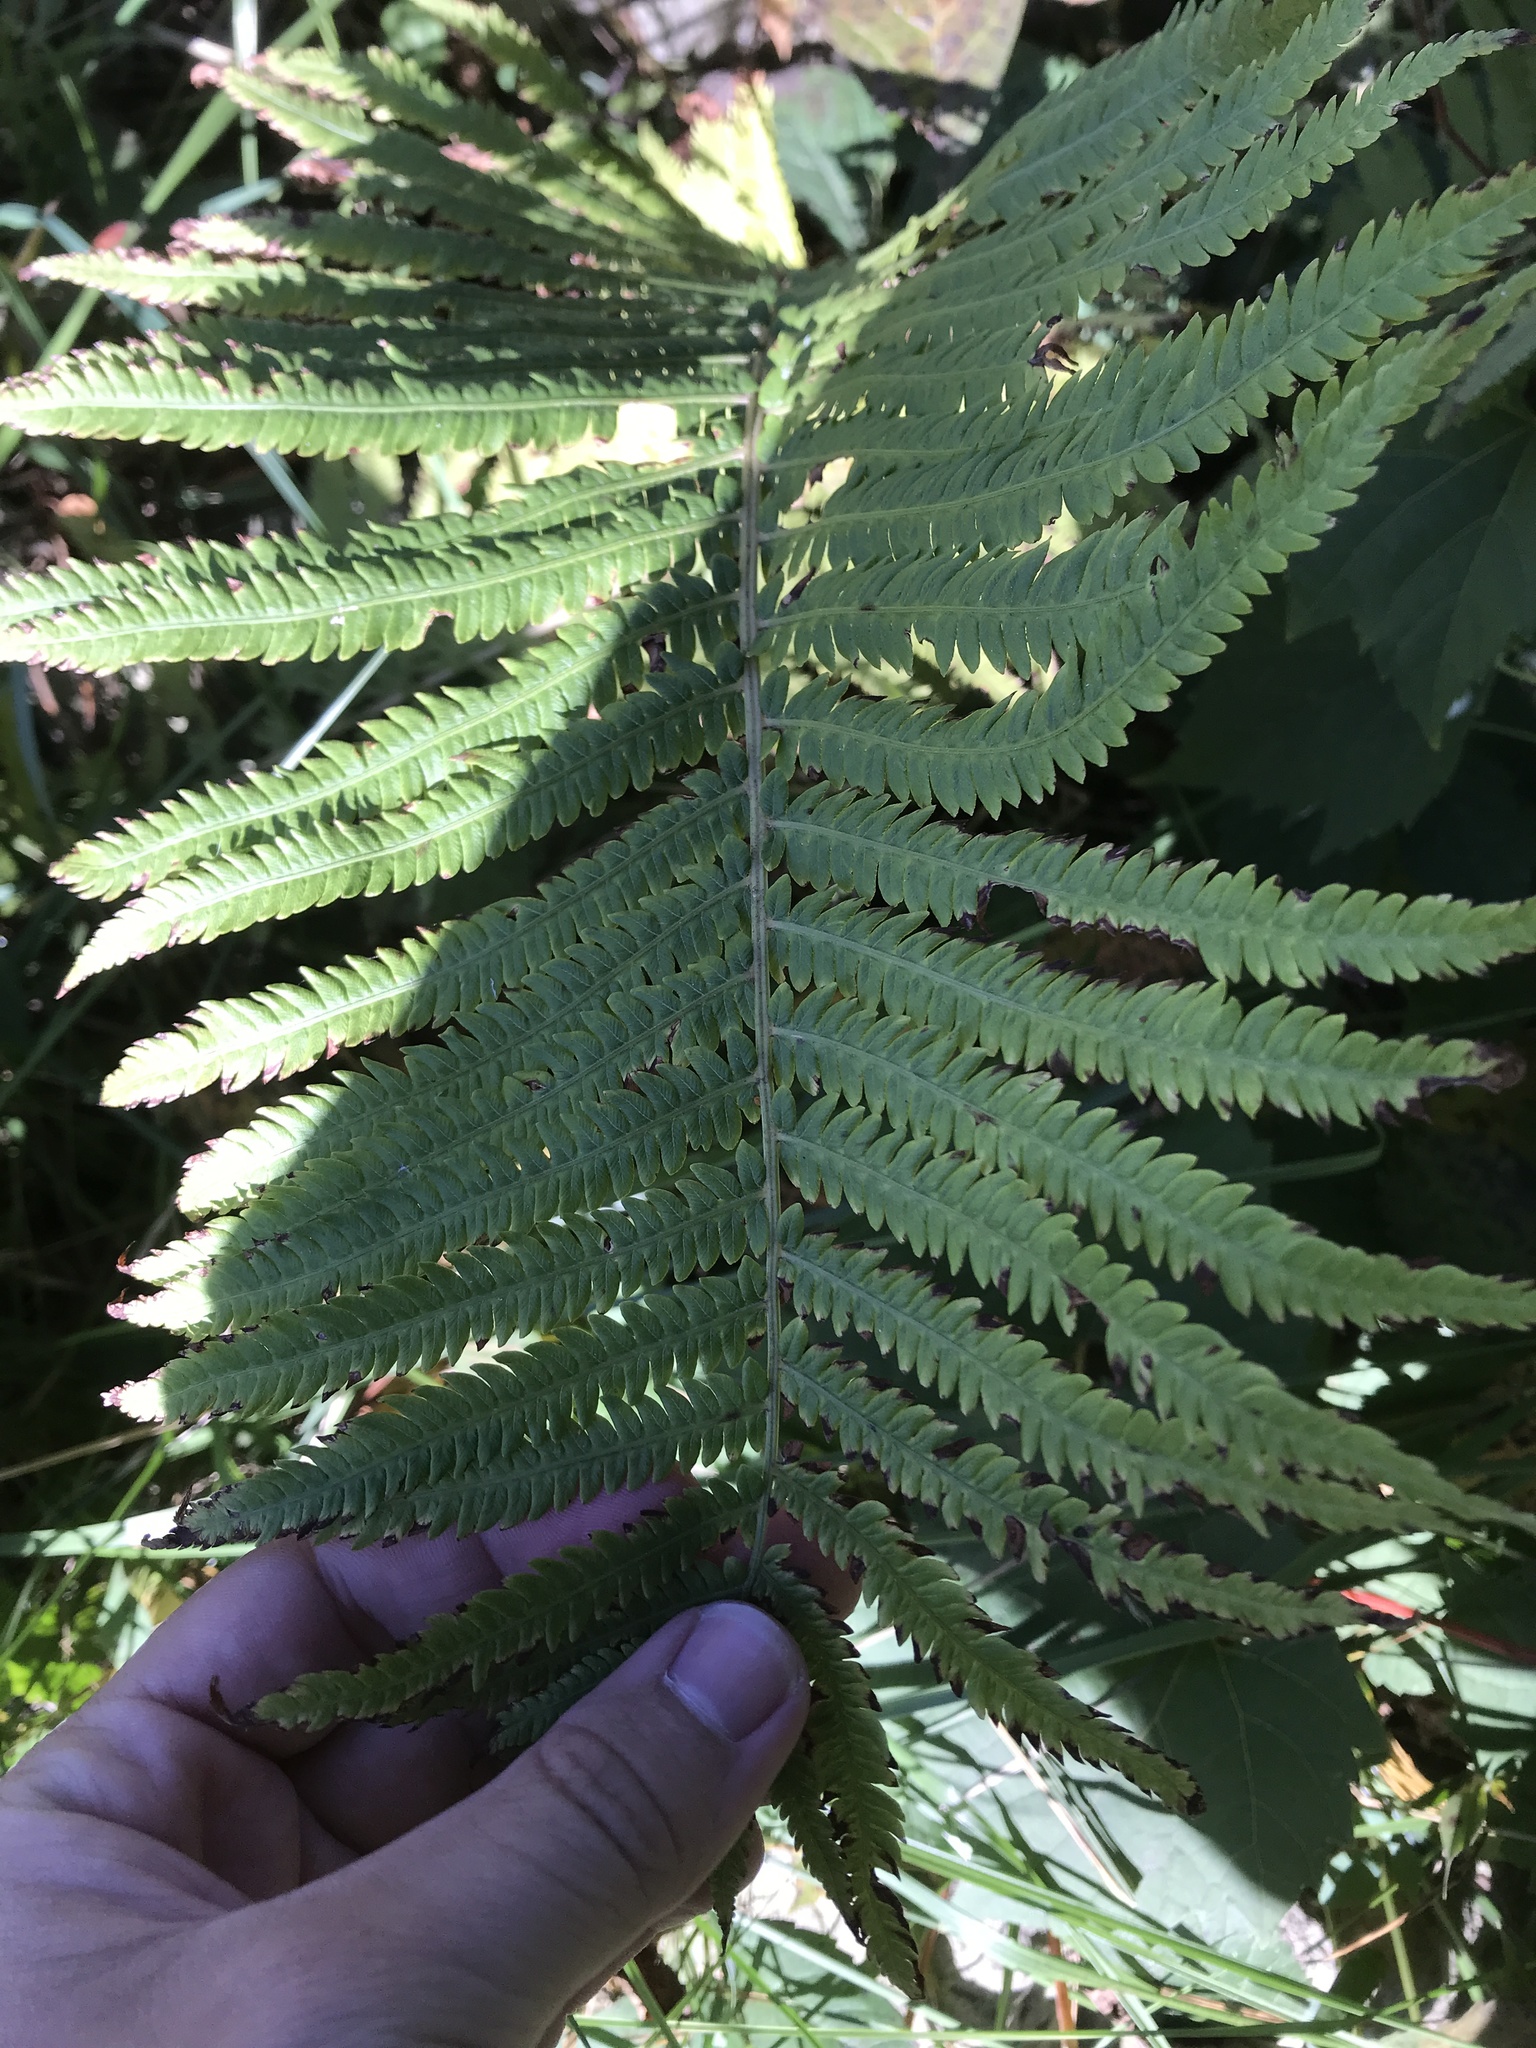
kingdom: Plantae
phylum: Tracheophyta
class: Polypodiopsida
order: Polypodiales
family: Onocleaceae
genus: Matteuccia
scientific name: Matteuccia struthiopteris
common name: Ostrich fern
